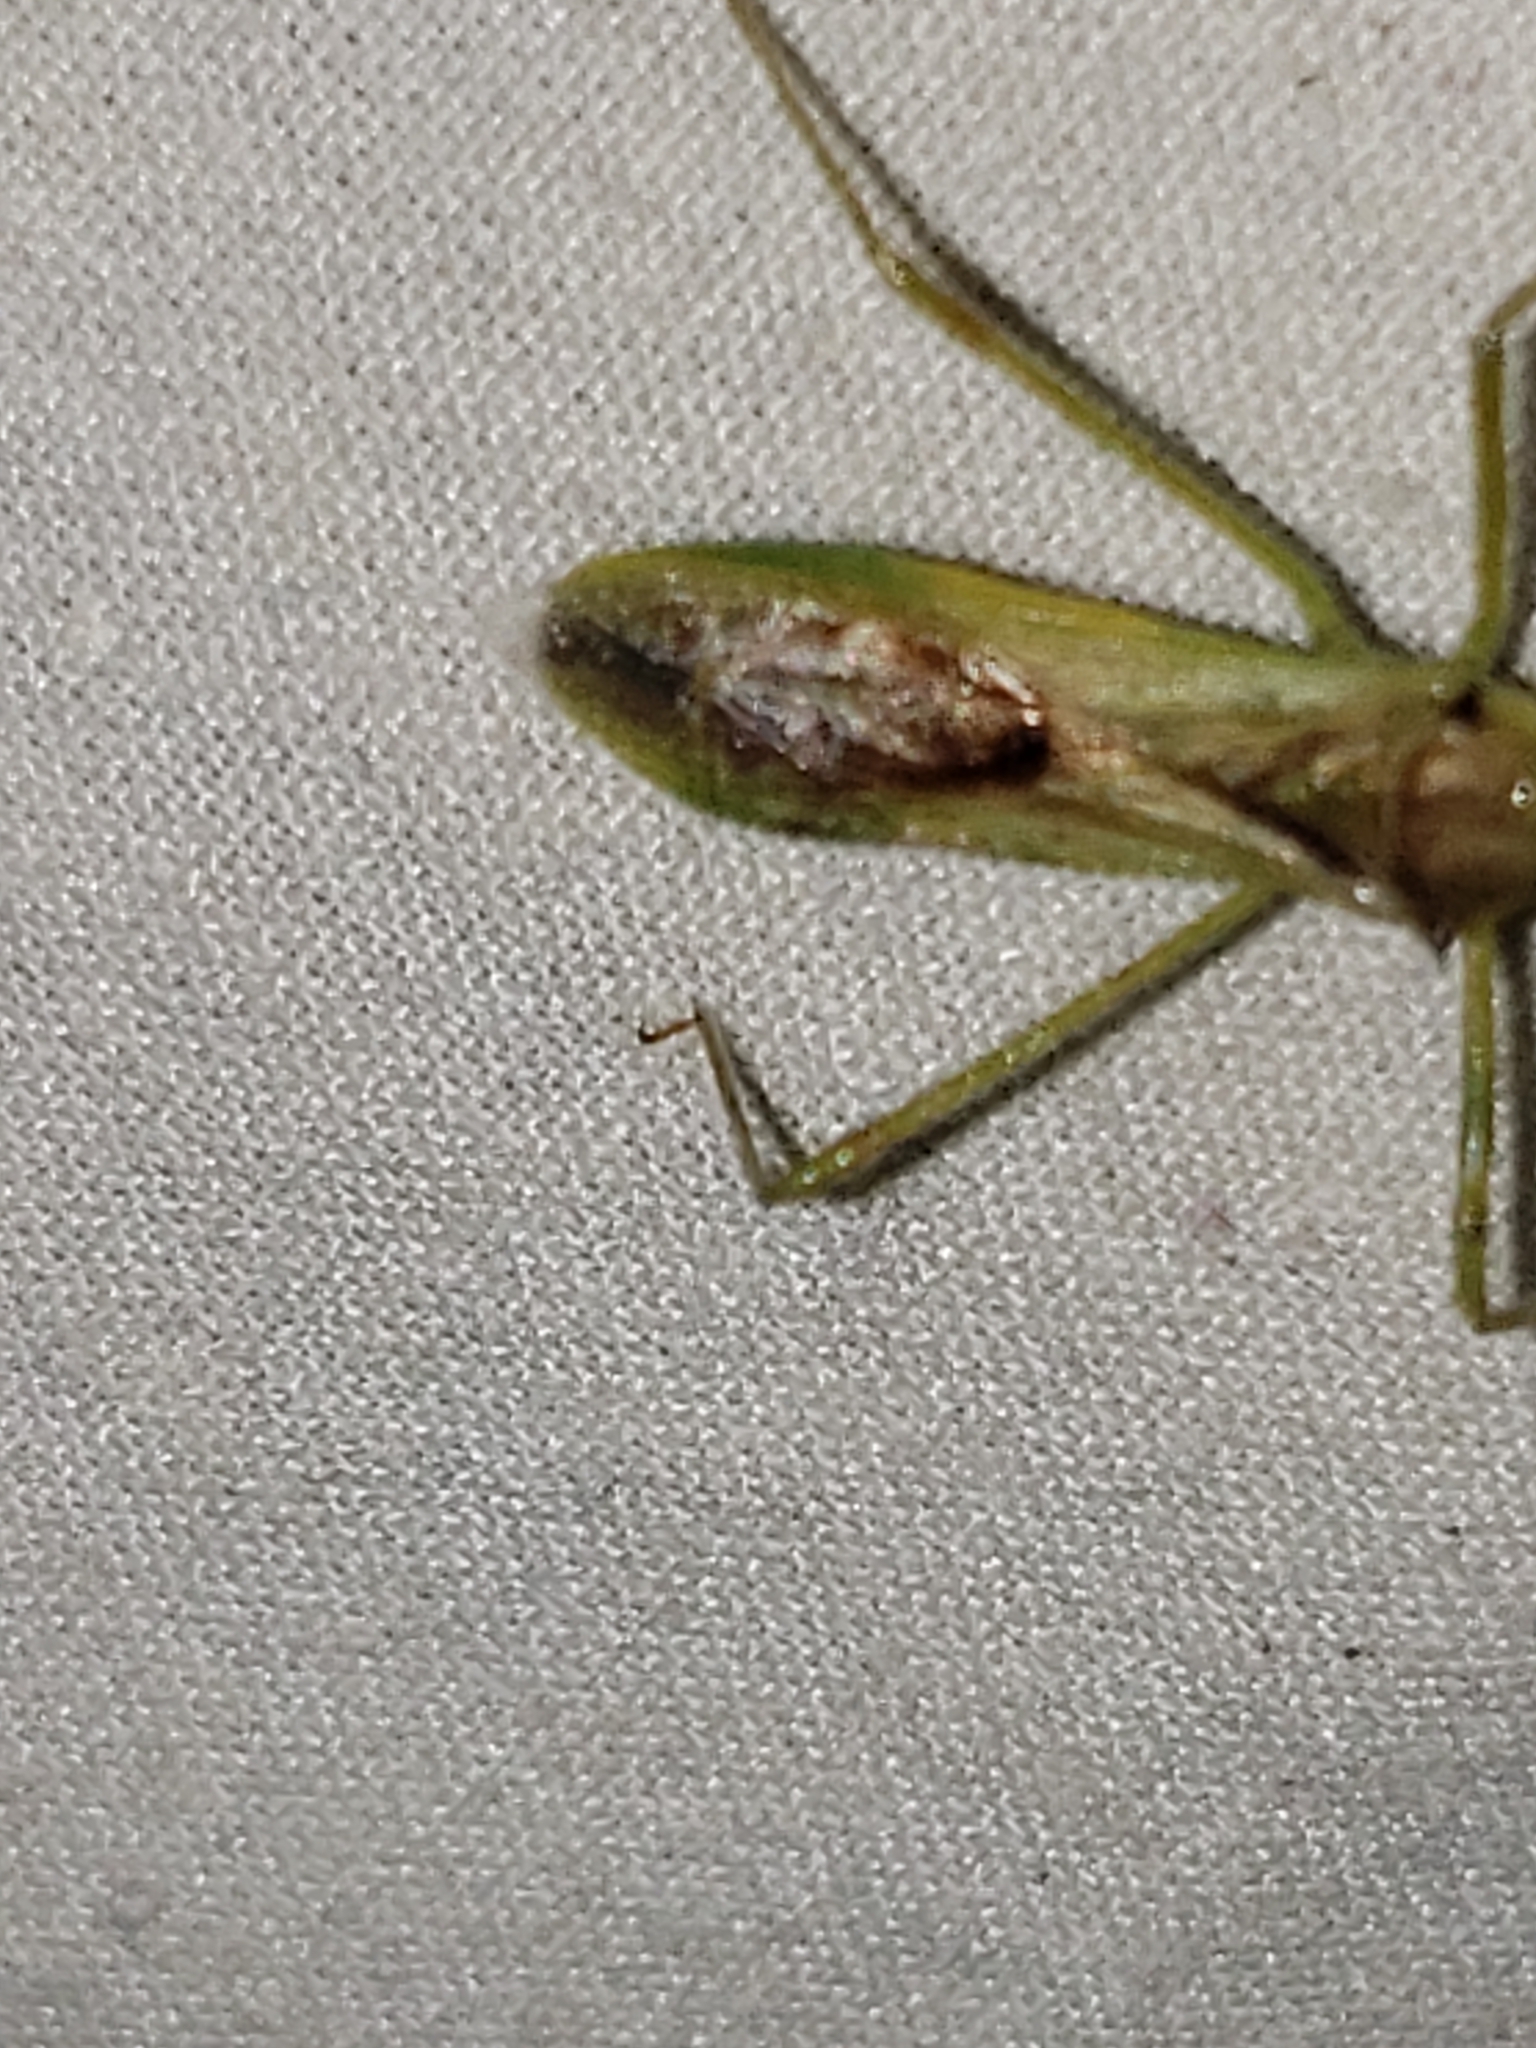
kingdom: Animalia
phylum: Arthropoda
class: Insecta
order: Hemiptera
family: Reduviidae
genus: Zelus
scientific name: Zelus luridus
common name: Pale green assassin bug
